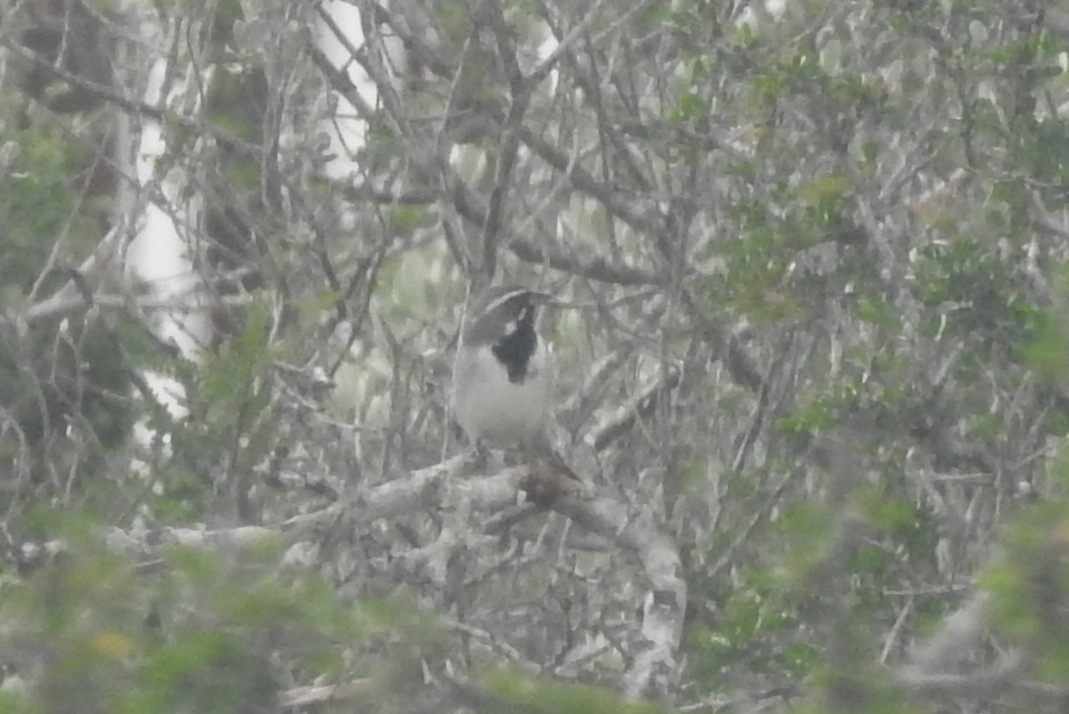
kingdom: Animalia
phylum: Chordata
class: Aves
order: Passeriformes
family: Passerellidae
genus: Amphispiza
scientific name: Amphispiza bilineata
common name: Black-throated sparrow
